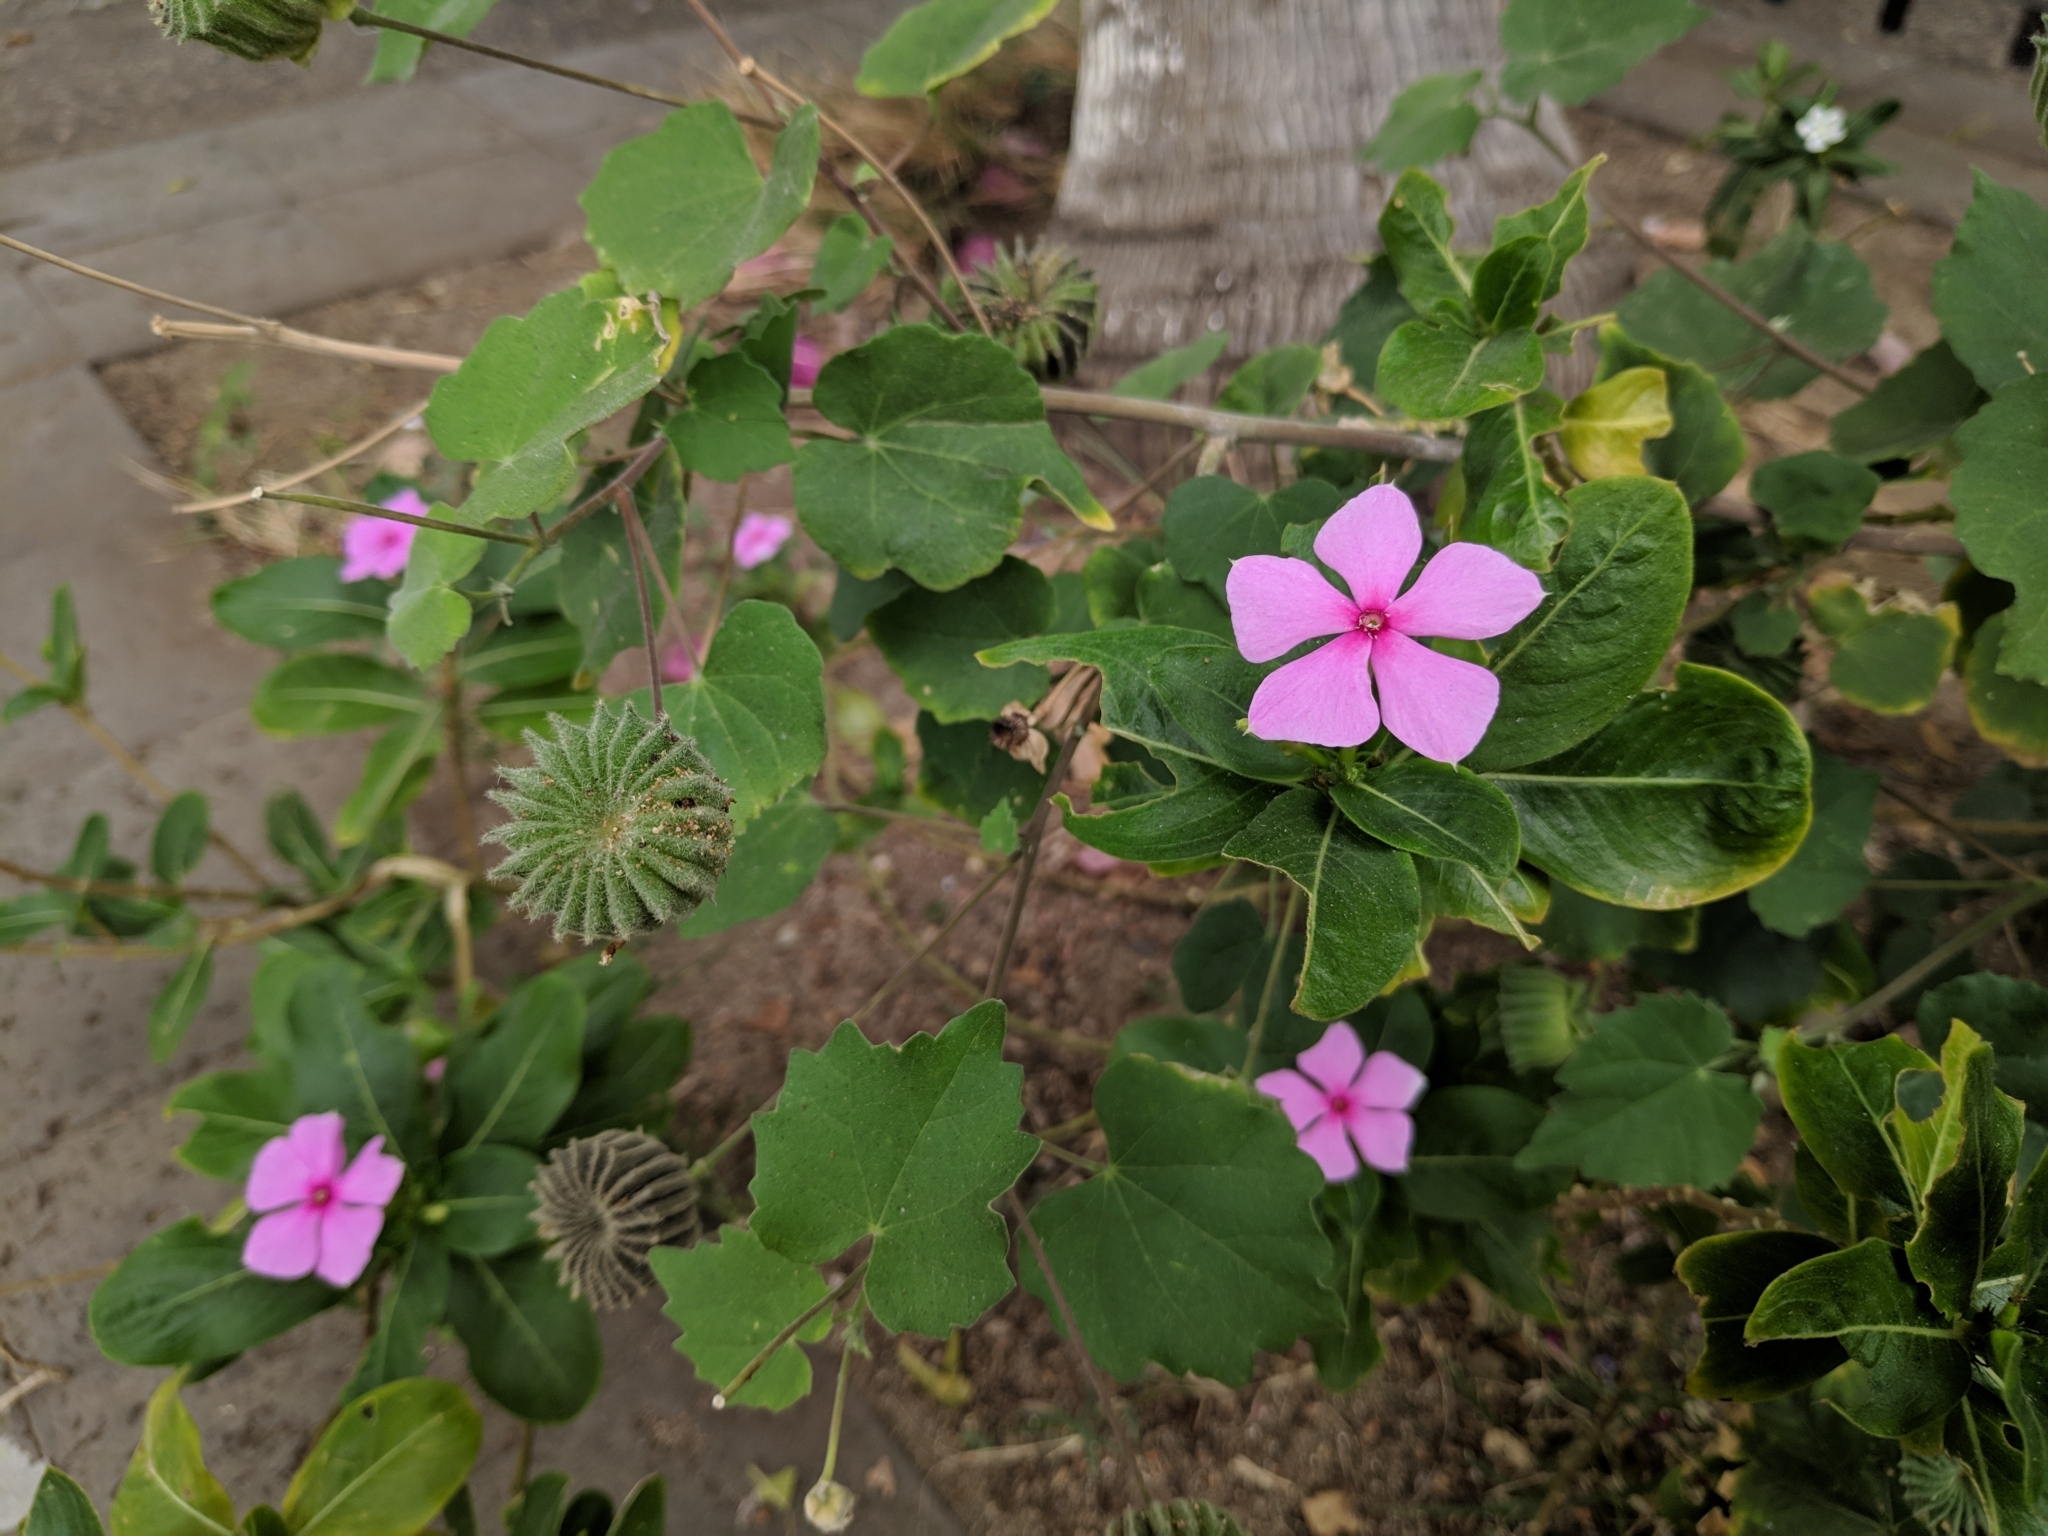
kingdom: Plantae
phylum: Tracheophyta
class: Magnoliopsida
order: Gentianales
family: Apocynaceae
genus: Catharanthus
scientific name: Catharanthus roseus
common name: Madagascar periwinkle
